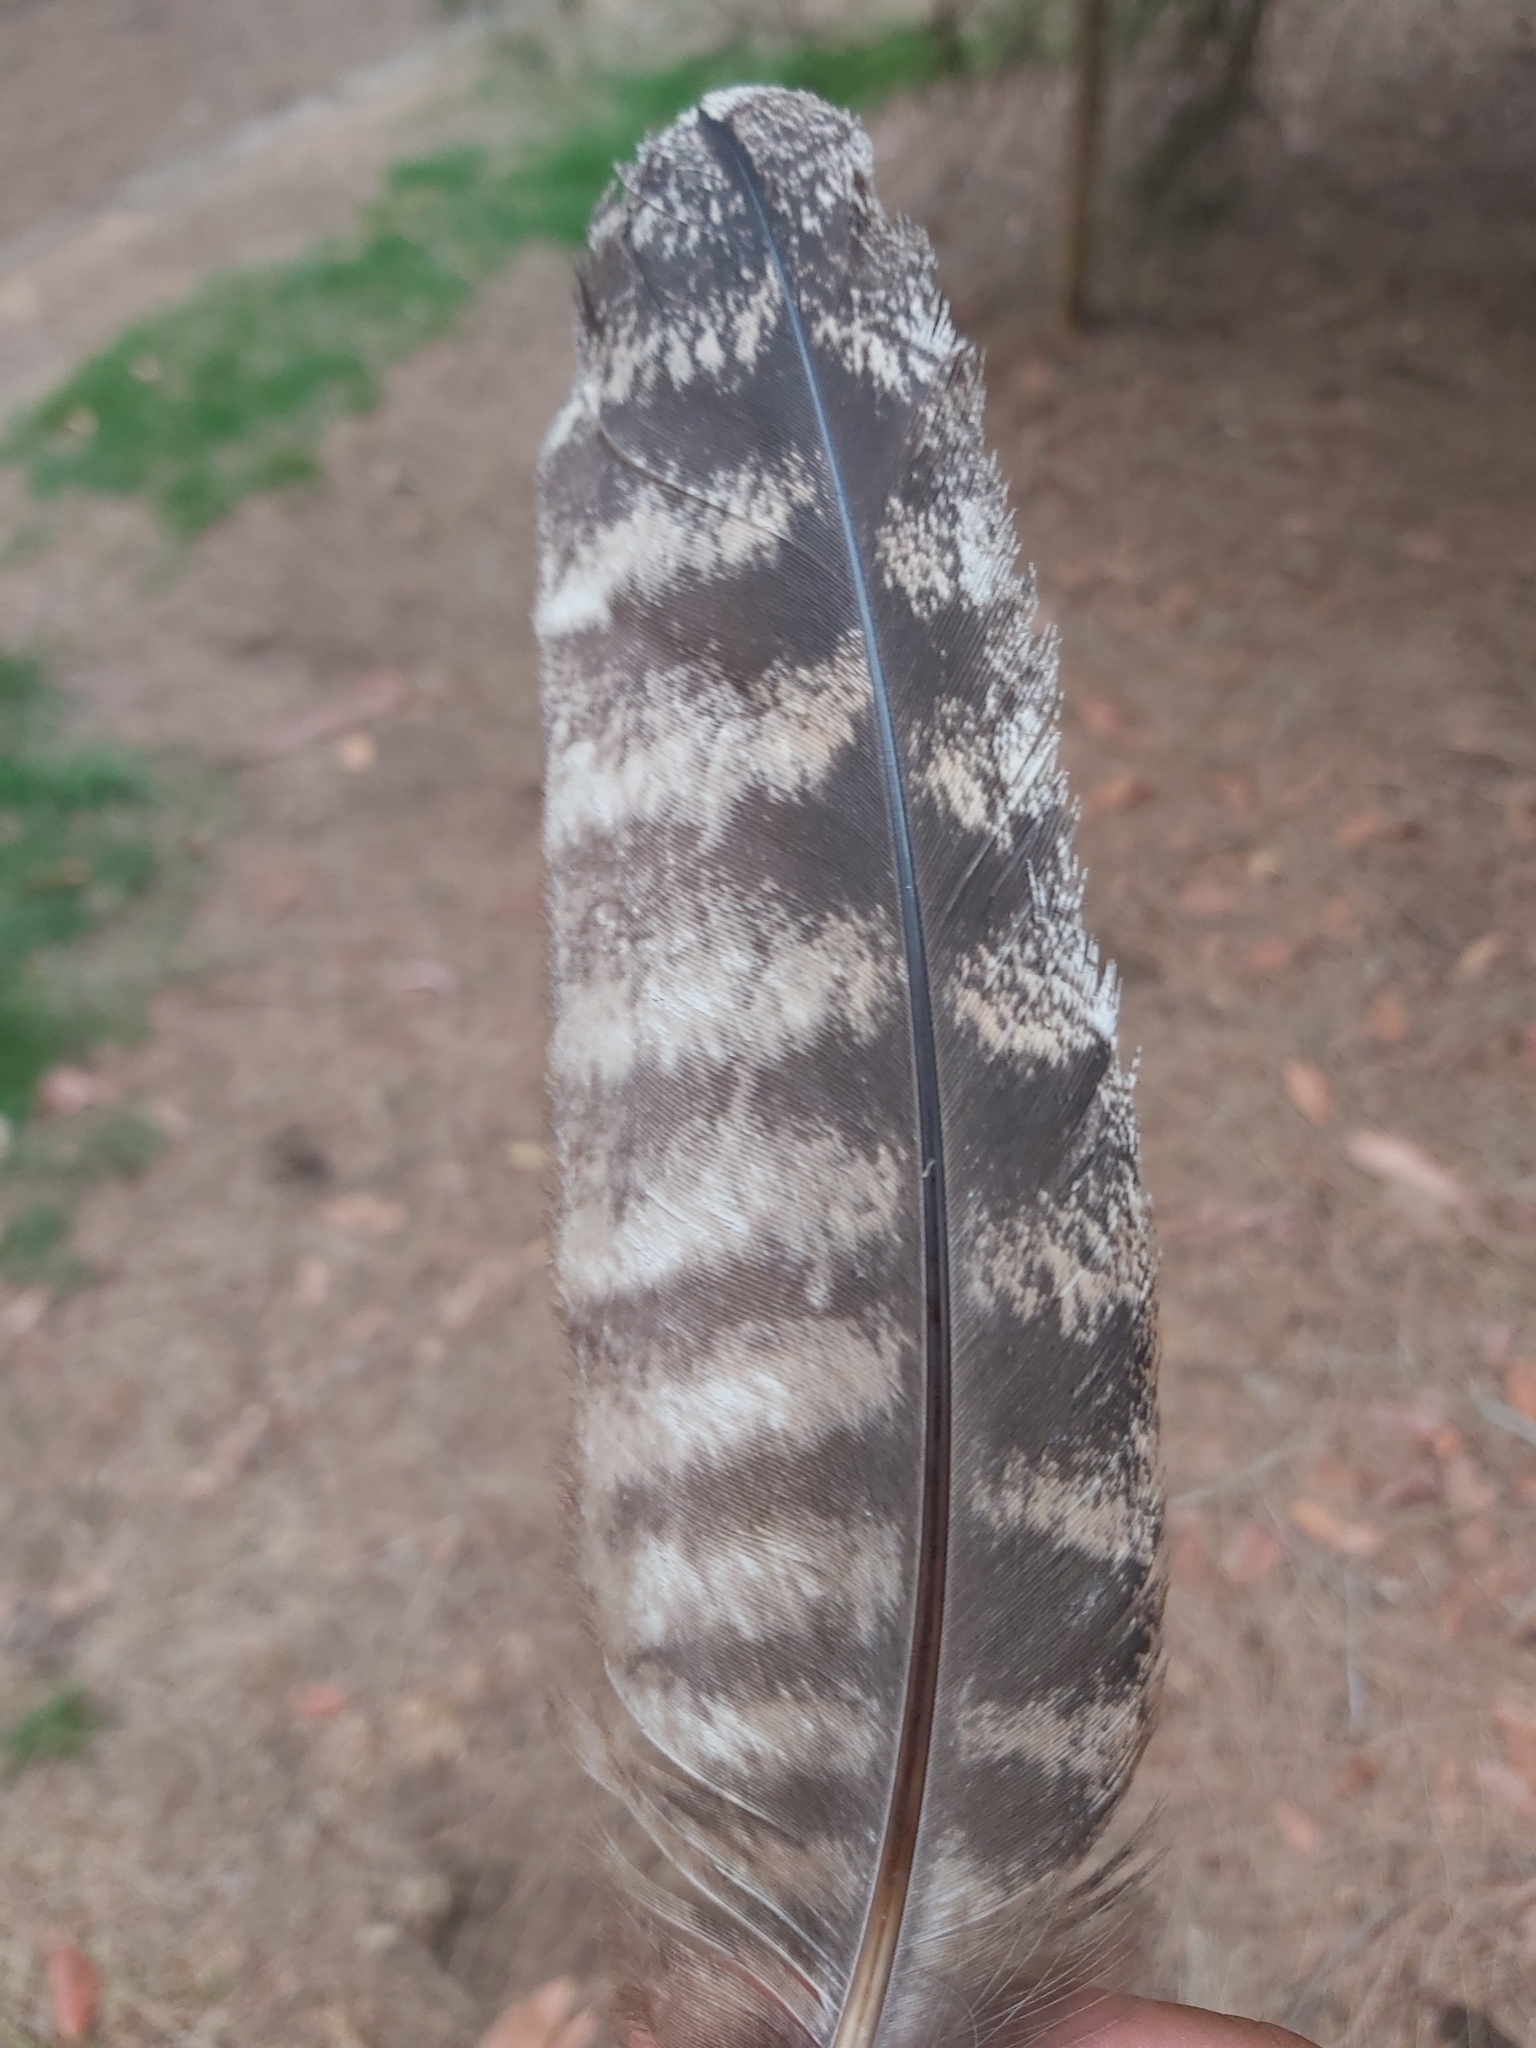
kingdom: Animalia
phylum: Chordata
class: Aves
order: Caprimulgiformes
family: Podargidae
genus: Podargus
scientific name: Podargus strigoides
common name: Tawny frogmouth
